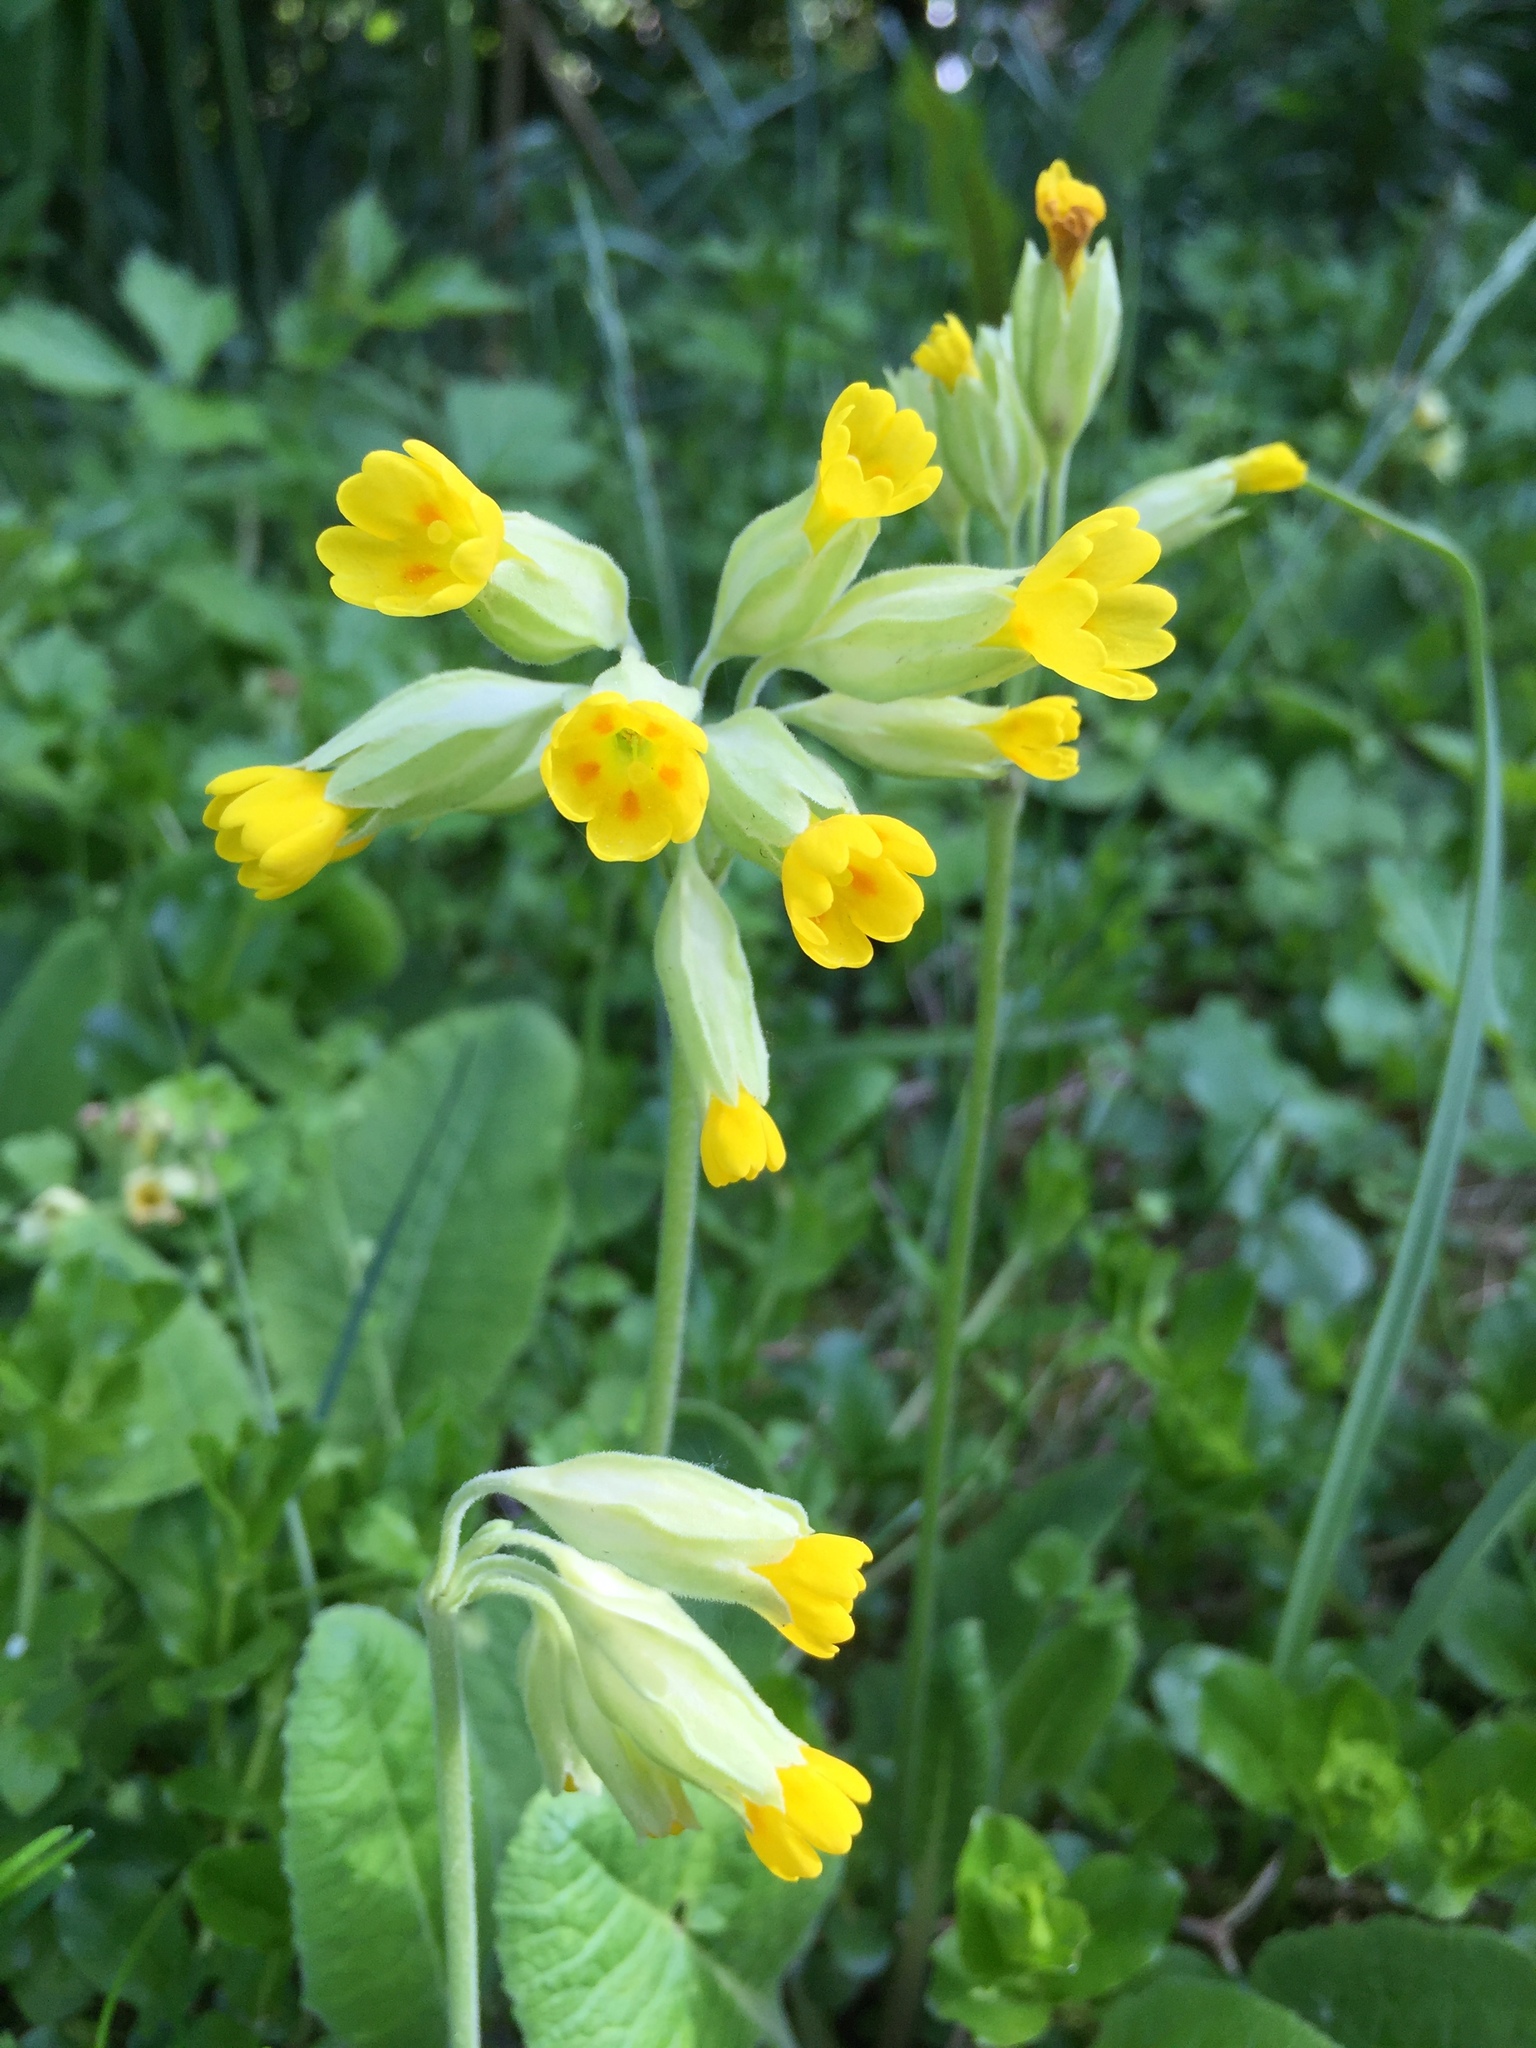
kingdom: Plantae
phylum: Tracheophyta
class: Magnoliopsida
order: Ericales
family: Primulaceae
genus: Primula
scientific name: Primula veris
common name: Cowslip
